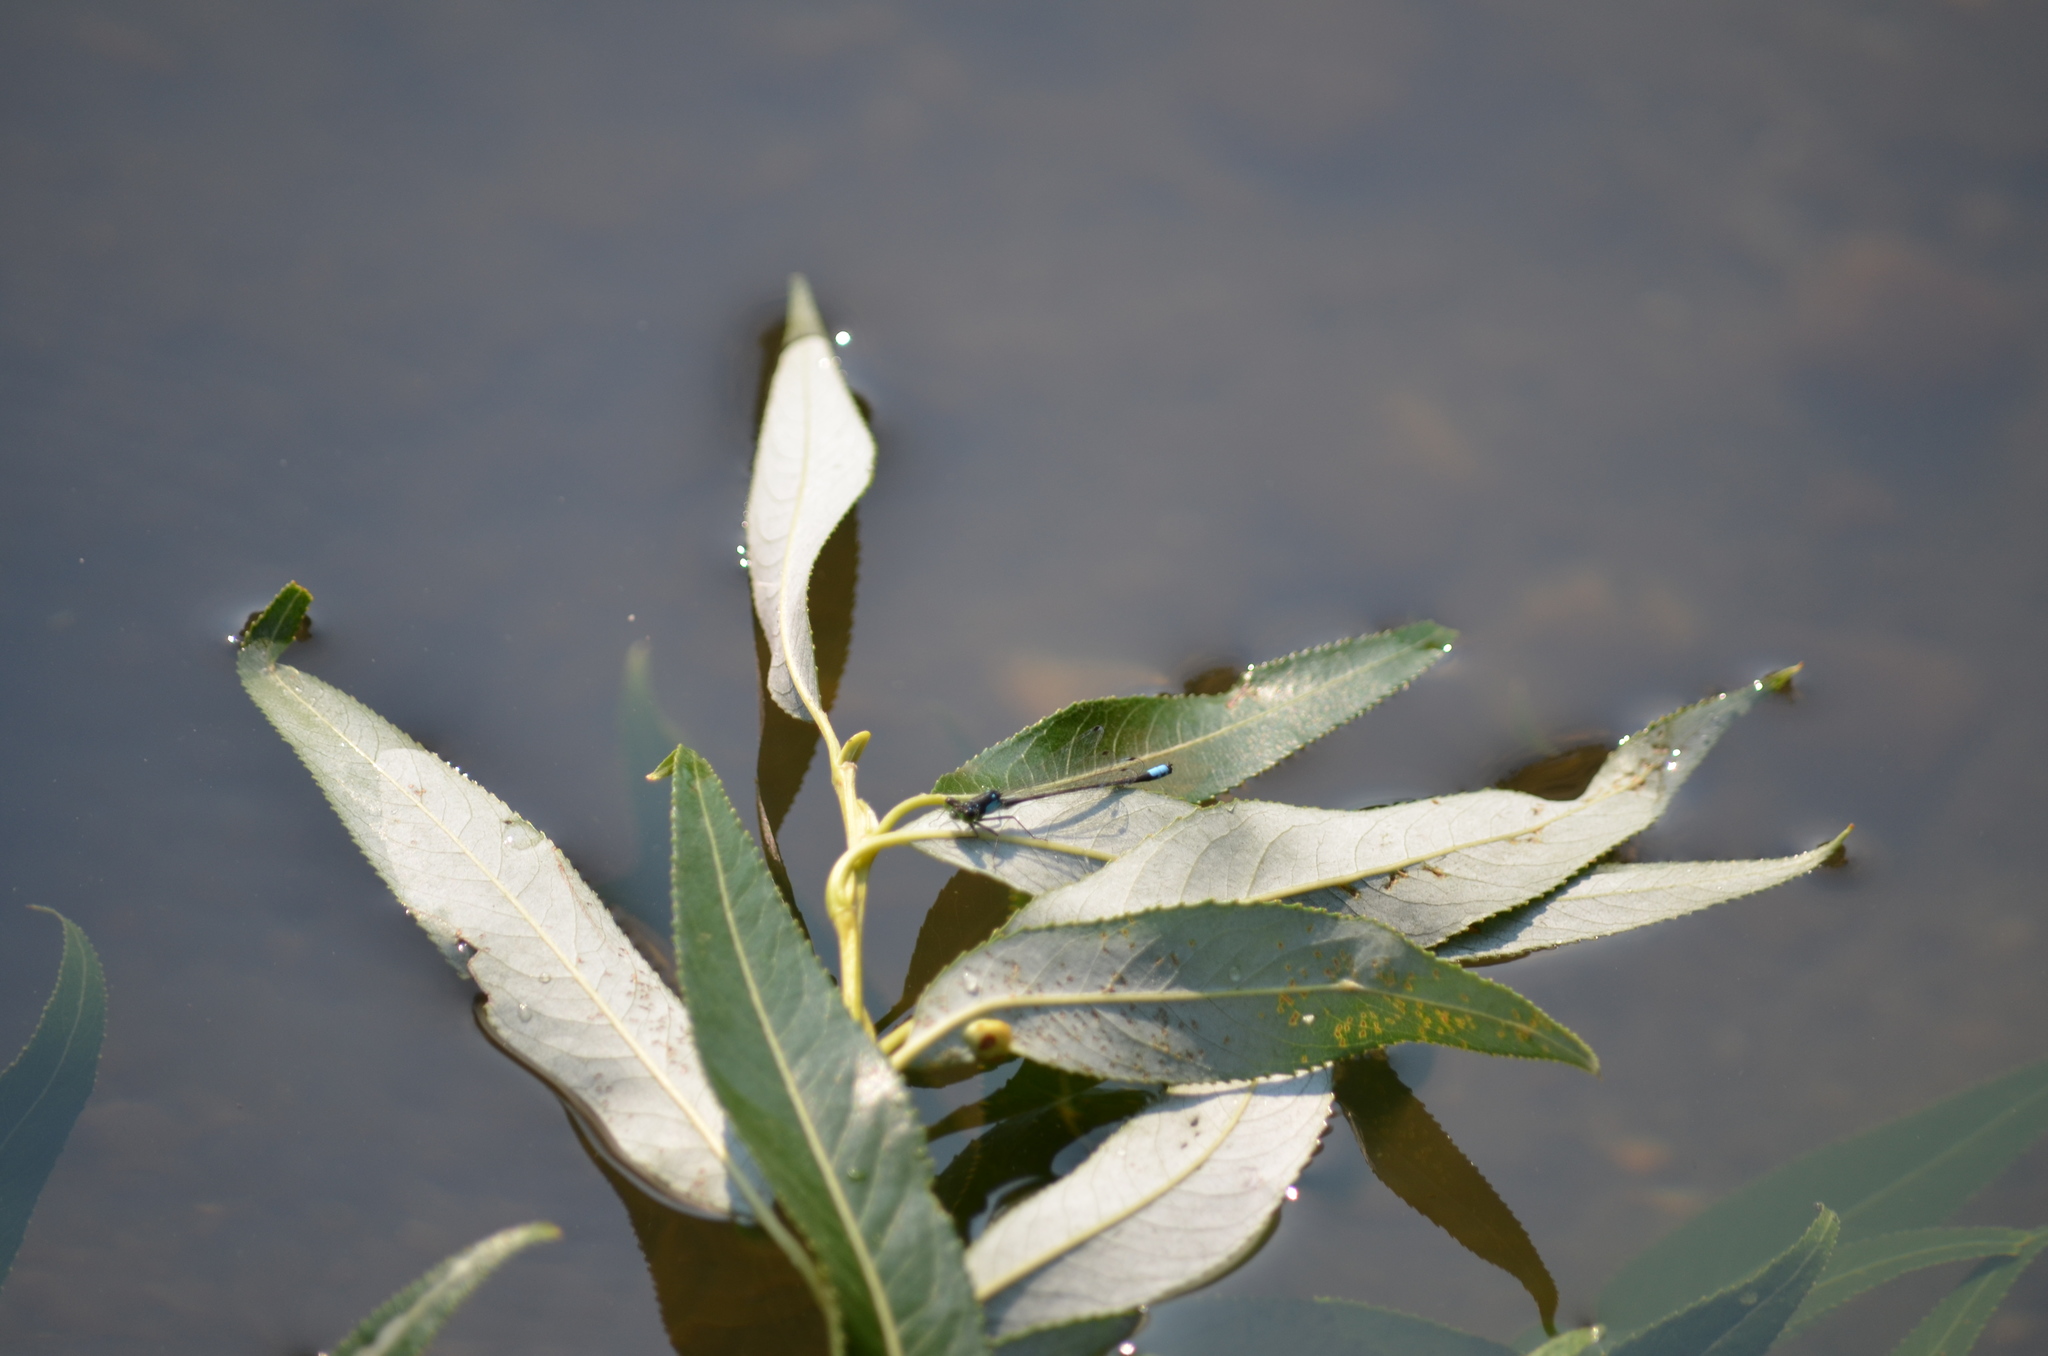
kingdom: Animalia
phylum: Arthropoda
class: Insecta
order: Odonata
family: Coenagrionidae
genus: Ischnura
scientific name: Ischnura cervula
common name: Pacific forktail
